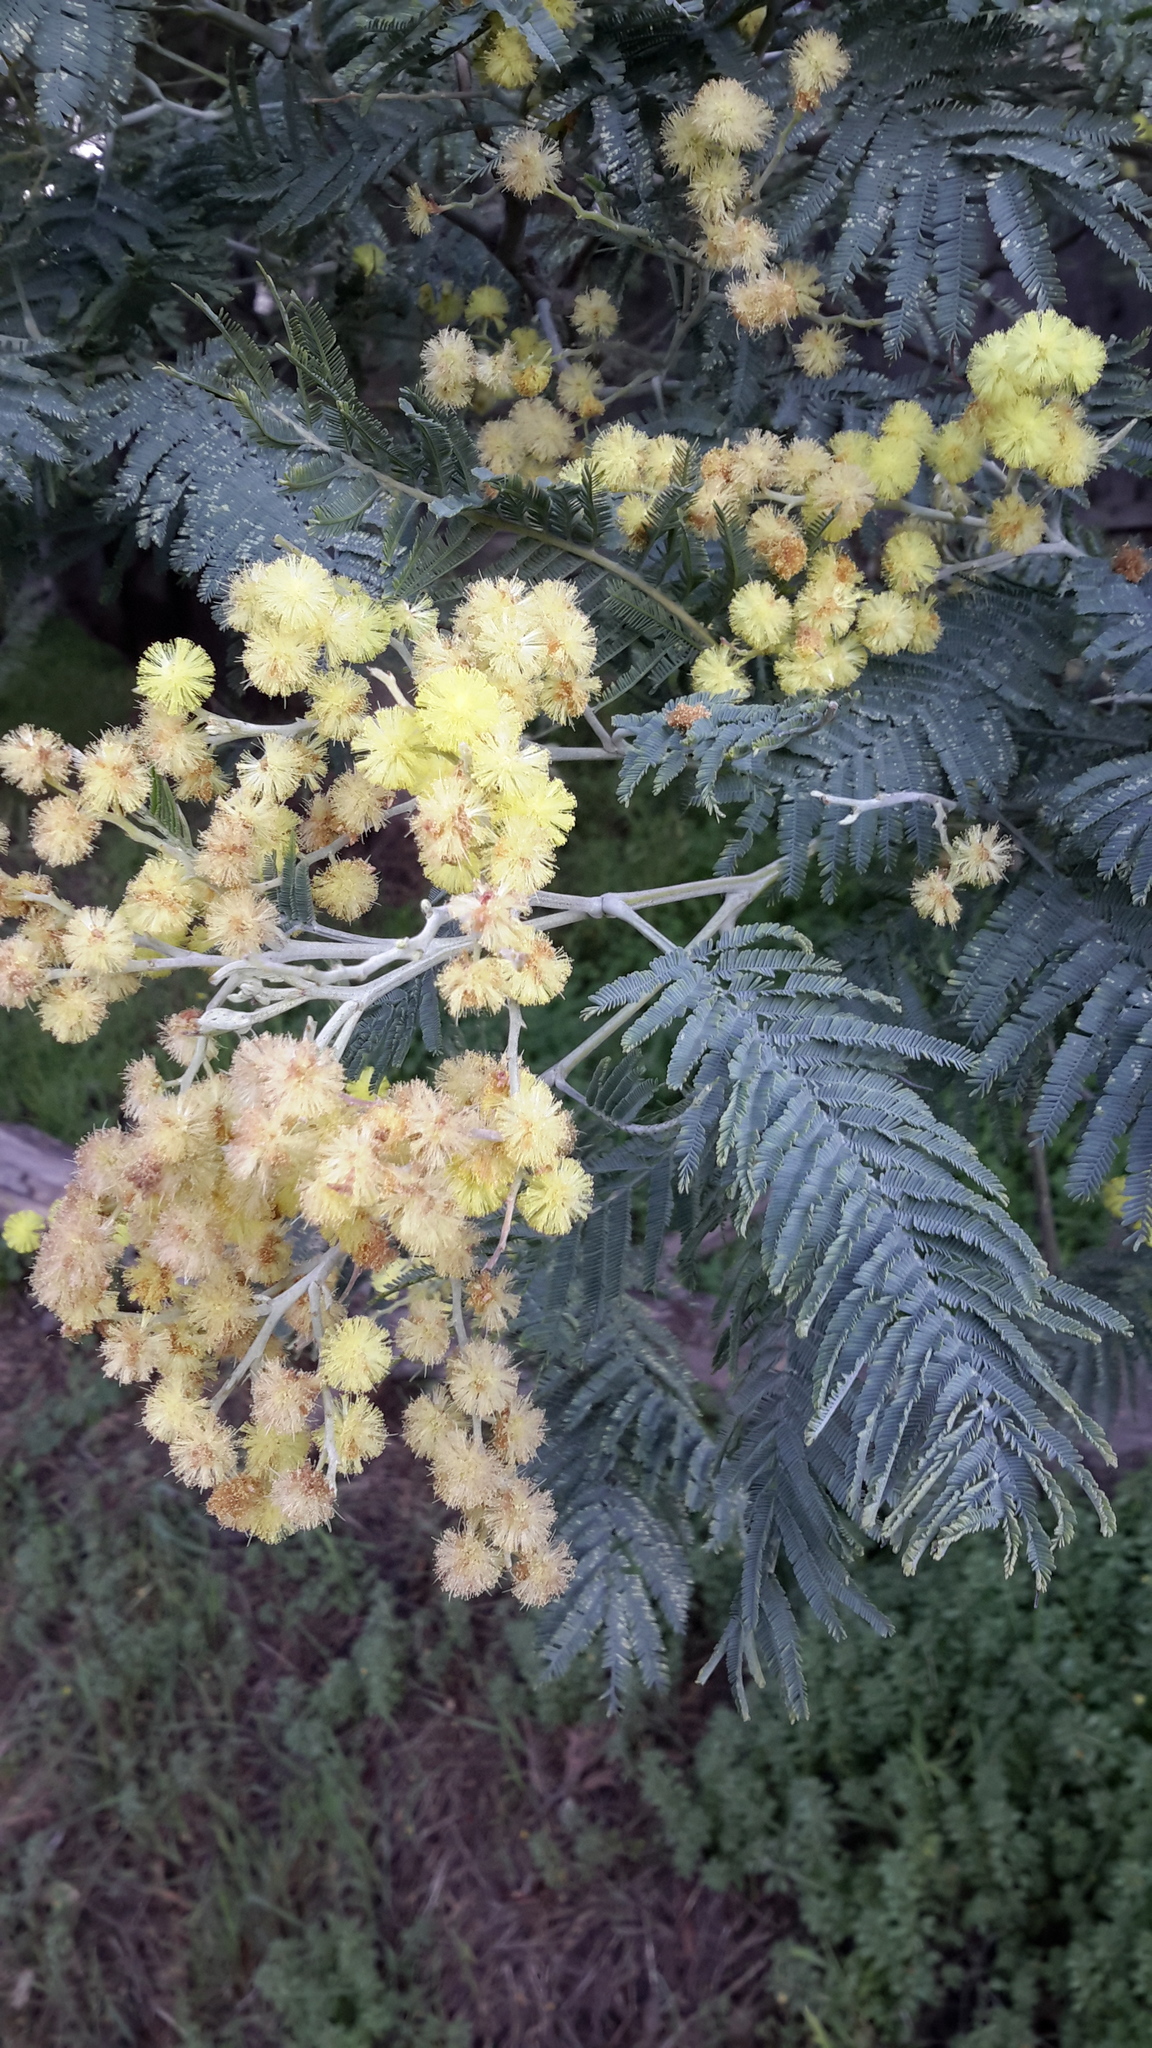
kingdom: Plantae
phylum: Tracheophyta
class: Magnoliopsida
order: Fabales
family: Fabaceae
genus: Acacia
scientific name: Acacia dealbata
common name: Silver wattle
